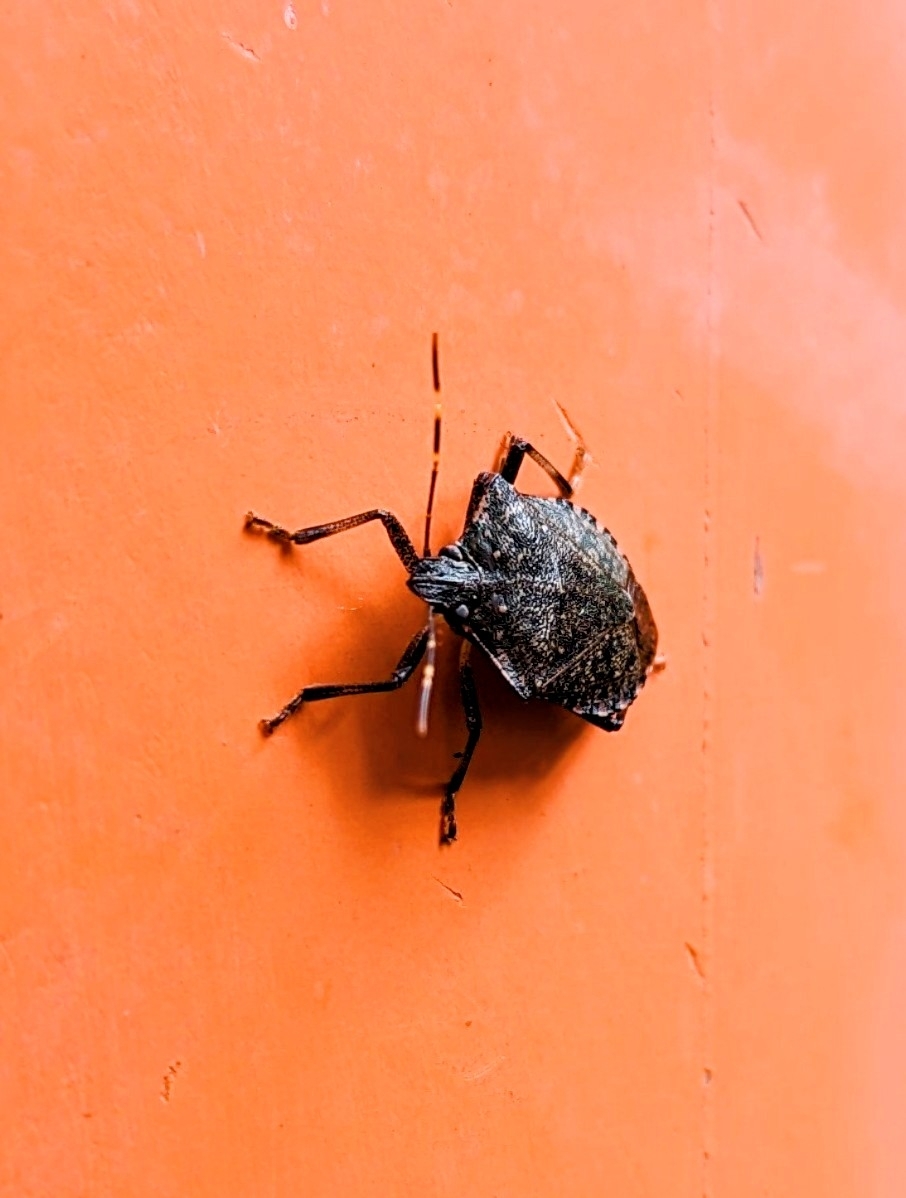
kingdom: Animalia
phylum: Arthropoda
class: Insecta
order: Hemiptera
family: Pentatomidae
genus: Halyomorpha
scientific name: Halyomorpha halys
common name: Brown marmorated stink bug
